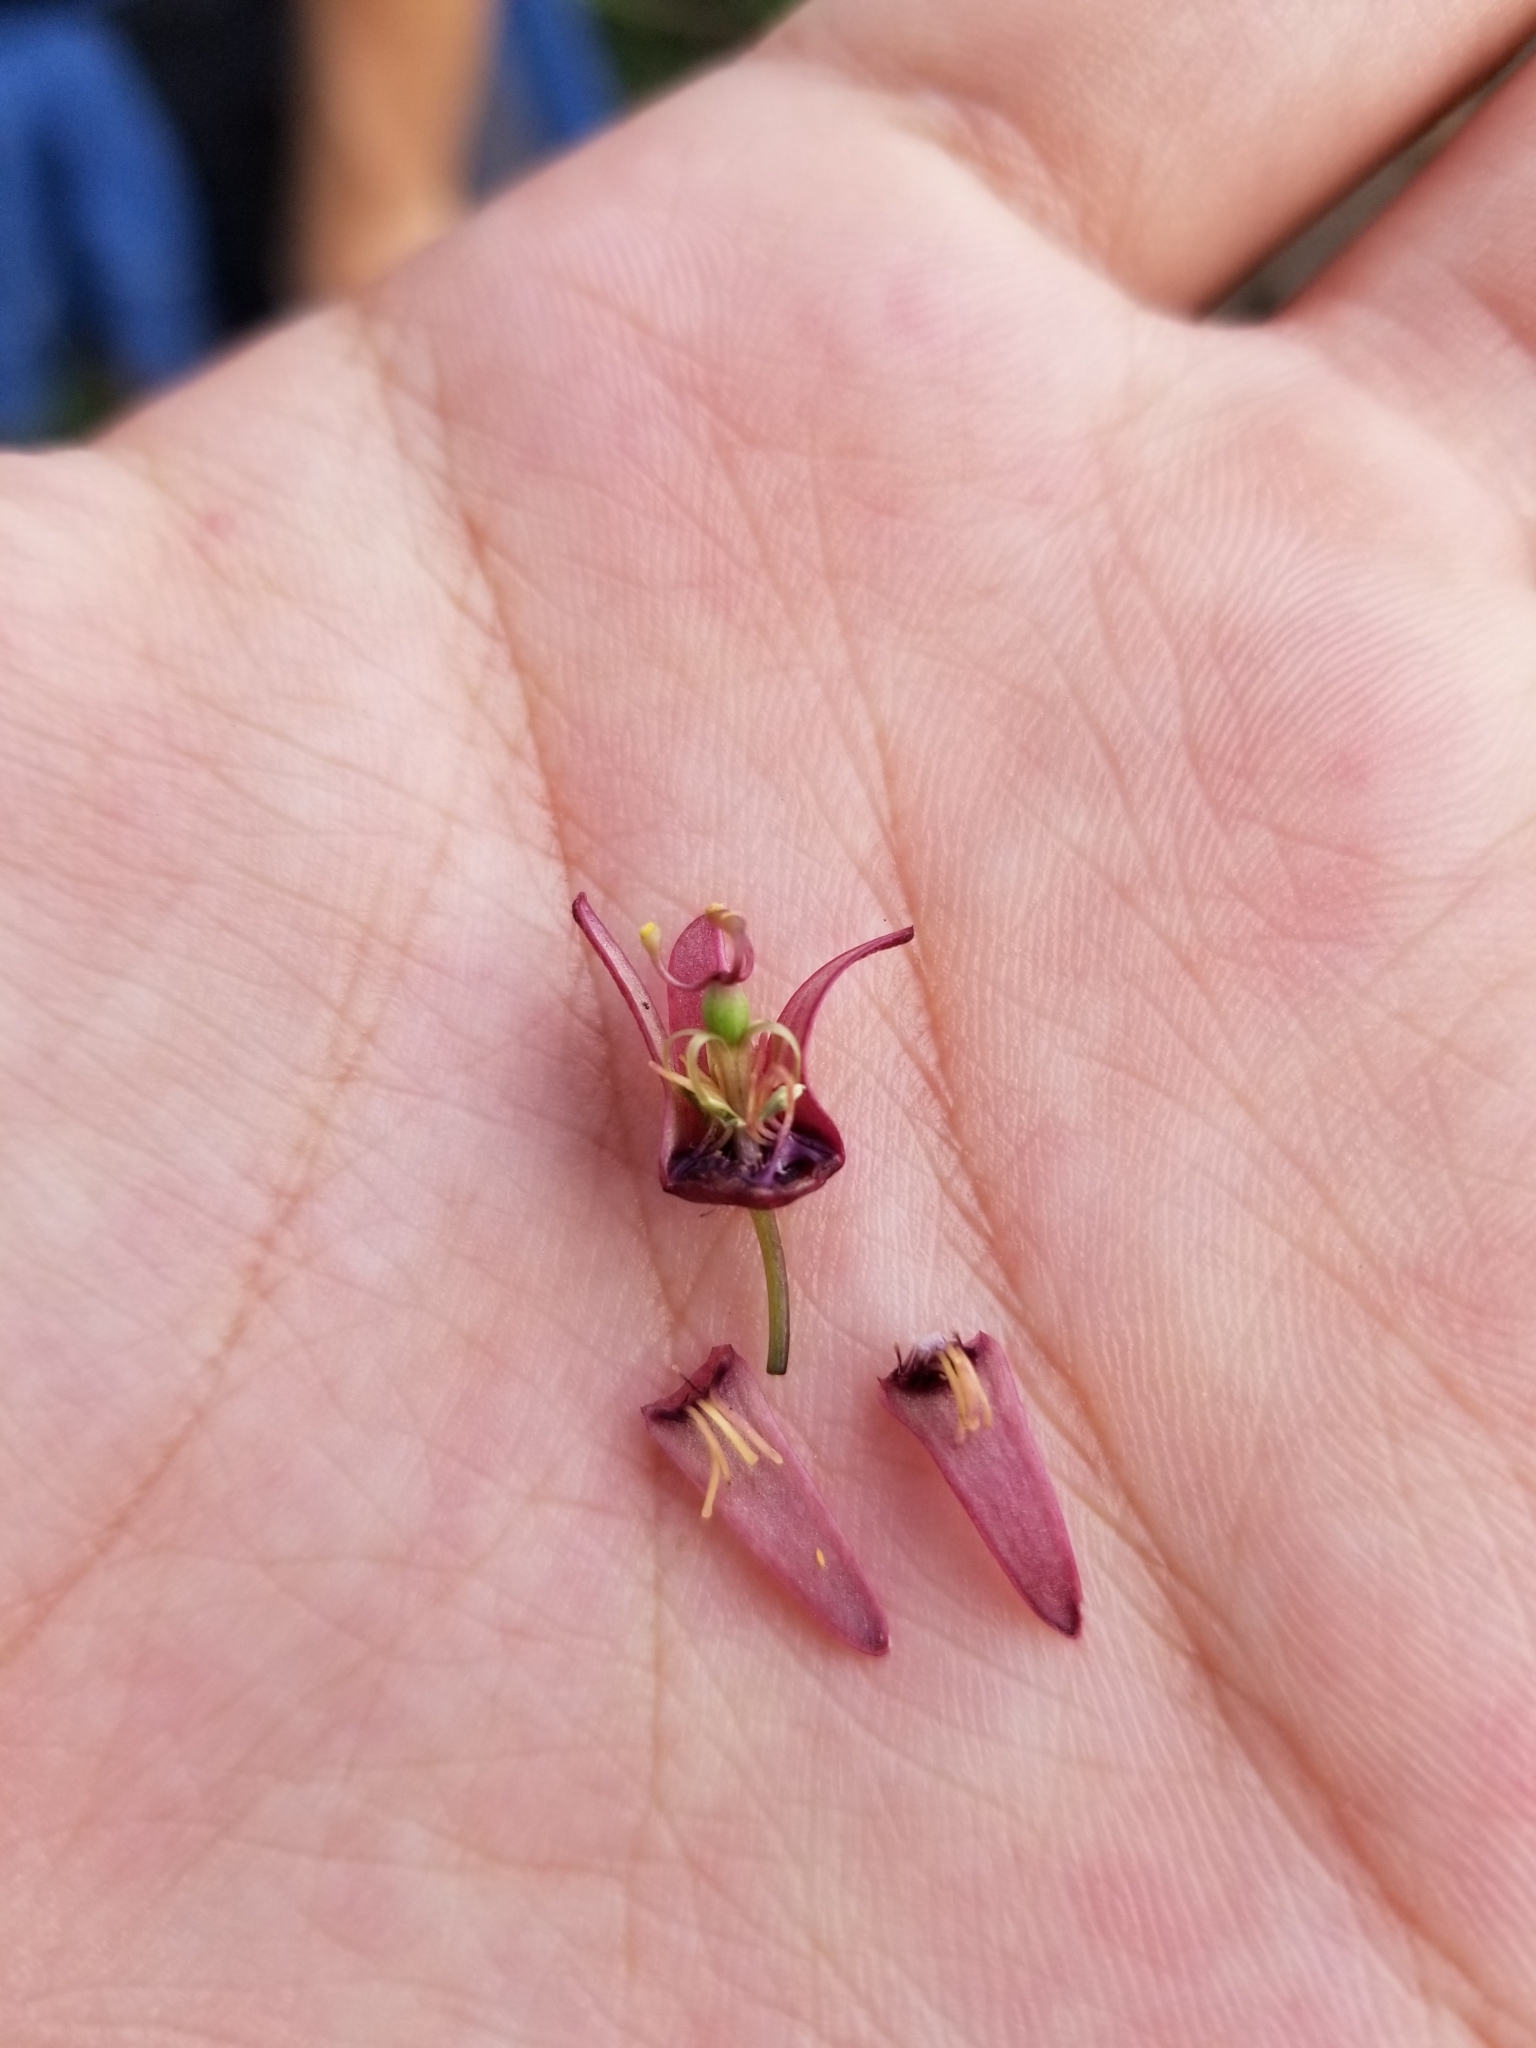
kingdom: Plantae
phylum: Tracheophyta
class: Magnoliopsida
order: Malpighiales
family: Passifloraceae
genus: Passiflora
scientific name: Passiflora suberosa
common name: Wild passionfruit
